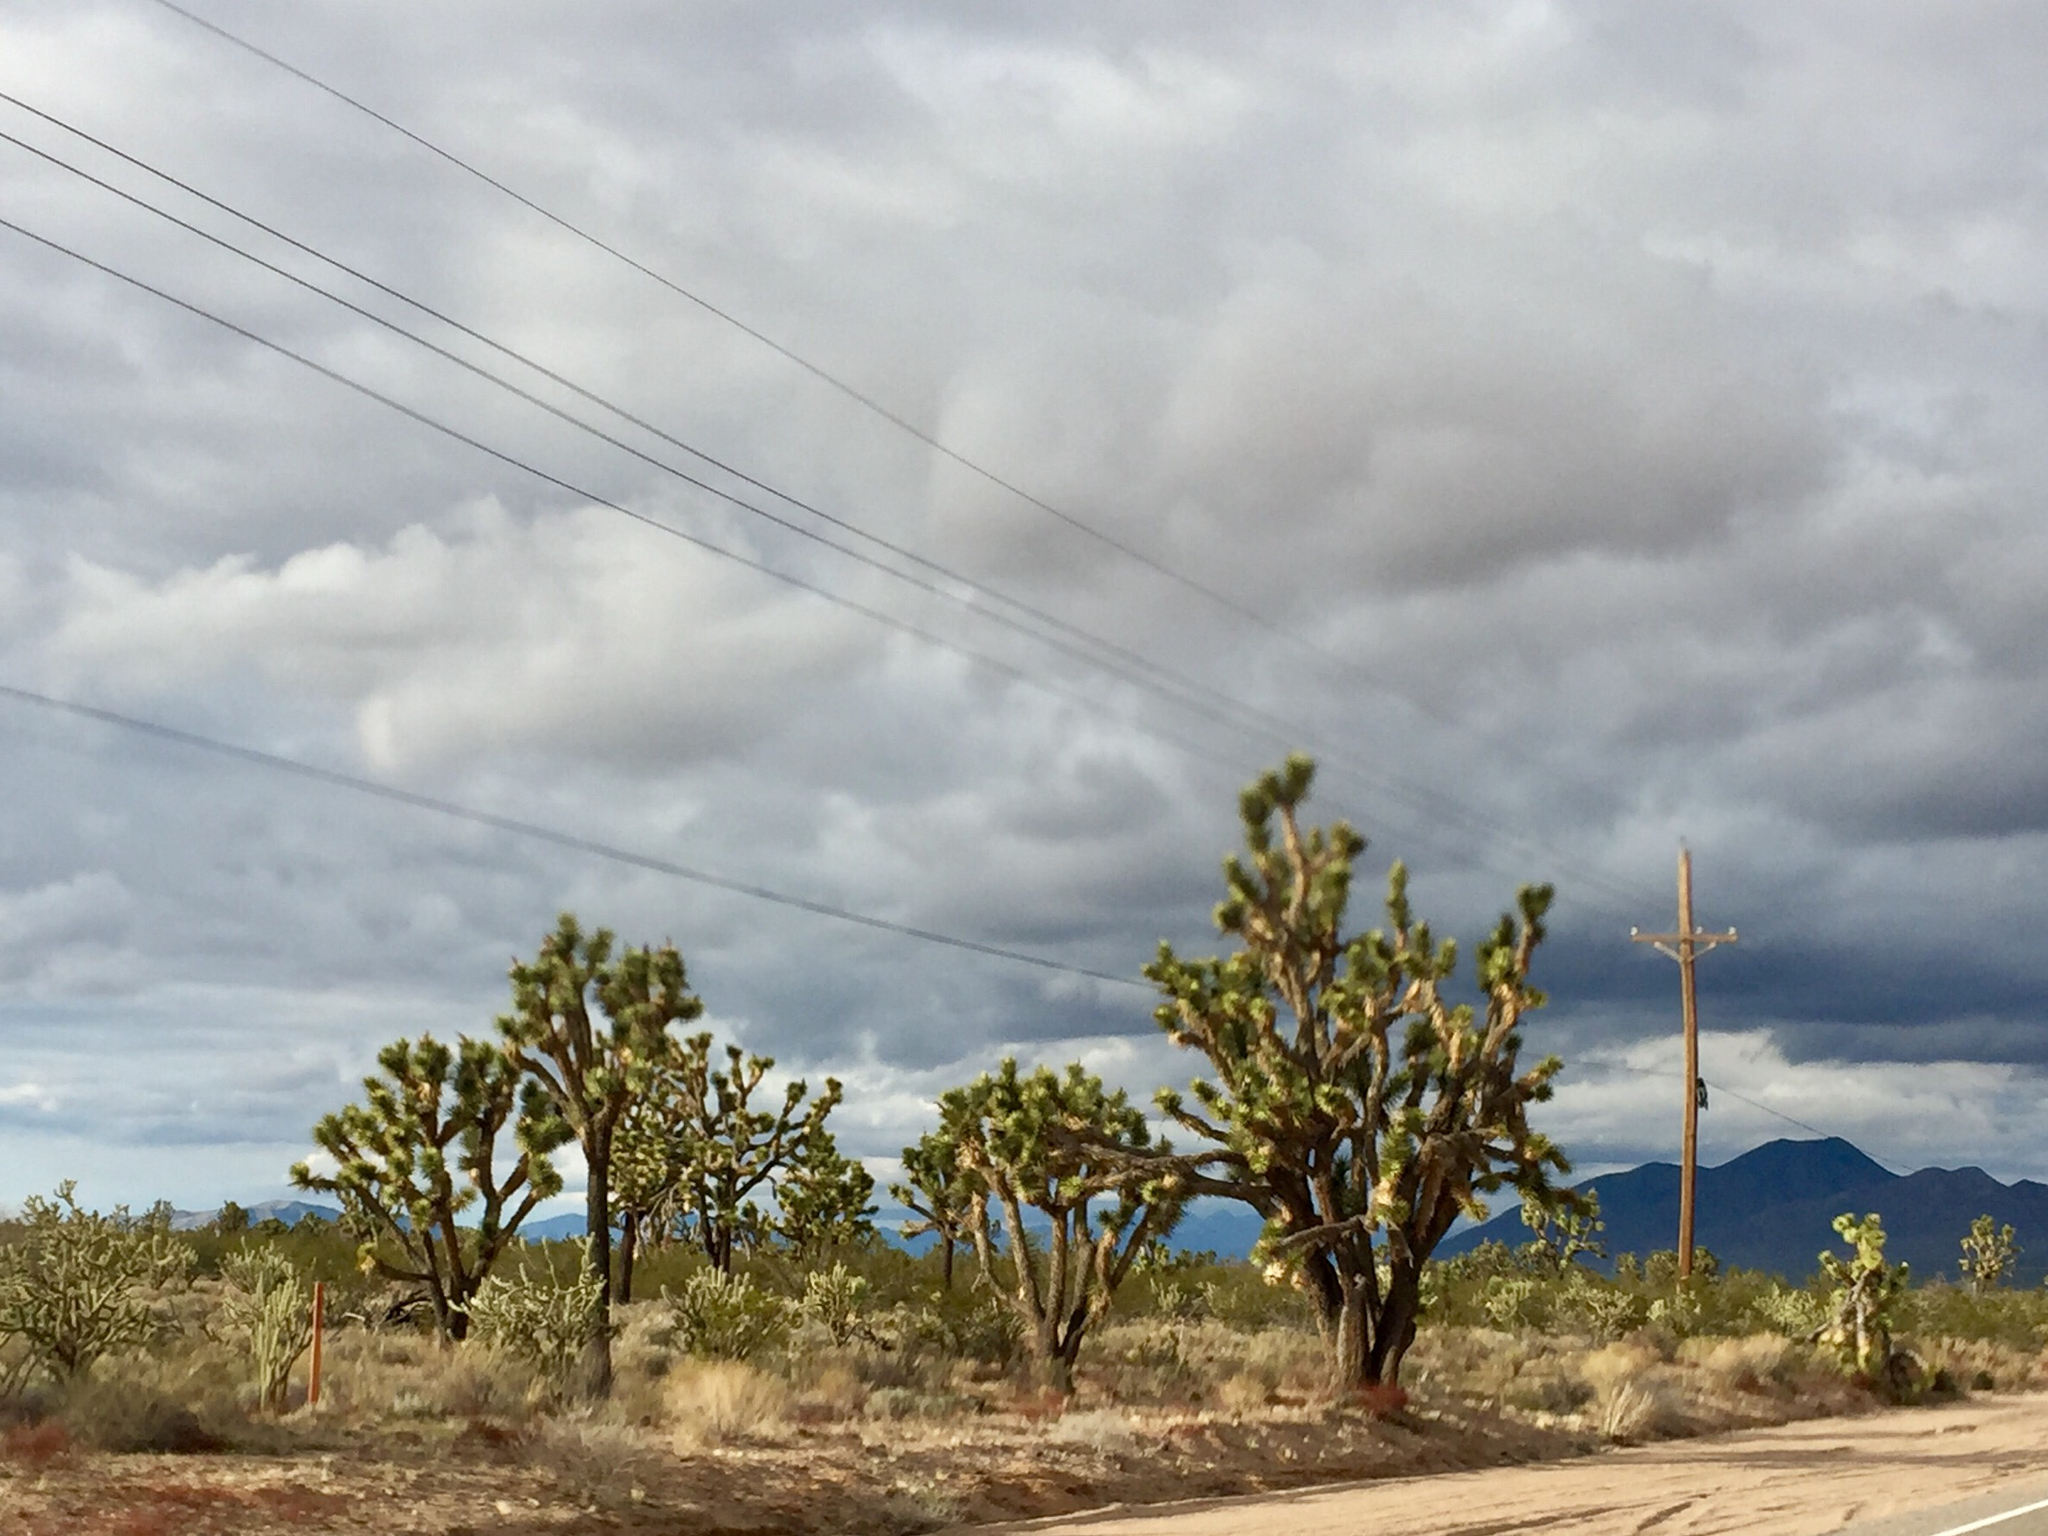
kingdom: Plantae
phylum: Tracheophyta
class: Liliopsida
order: Asparagales
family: Asparagaceae
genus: Yucca
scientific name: Yucca brevifolia
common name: Joshua tree
